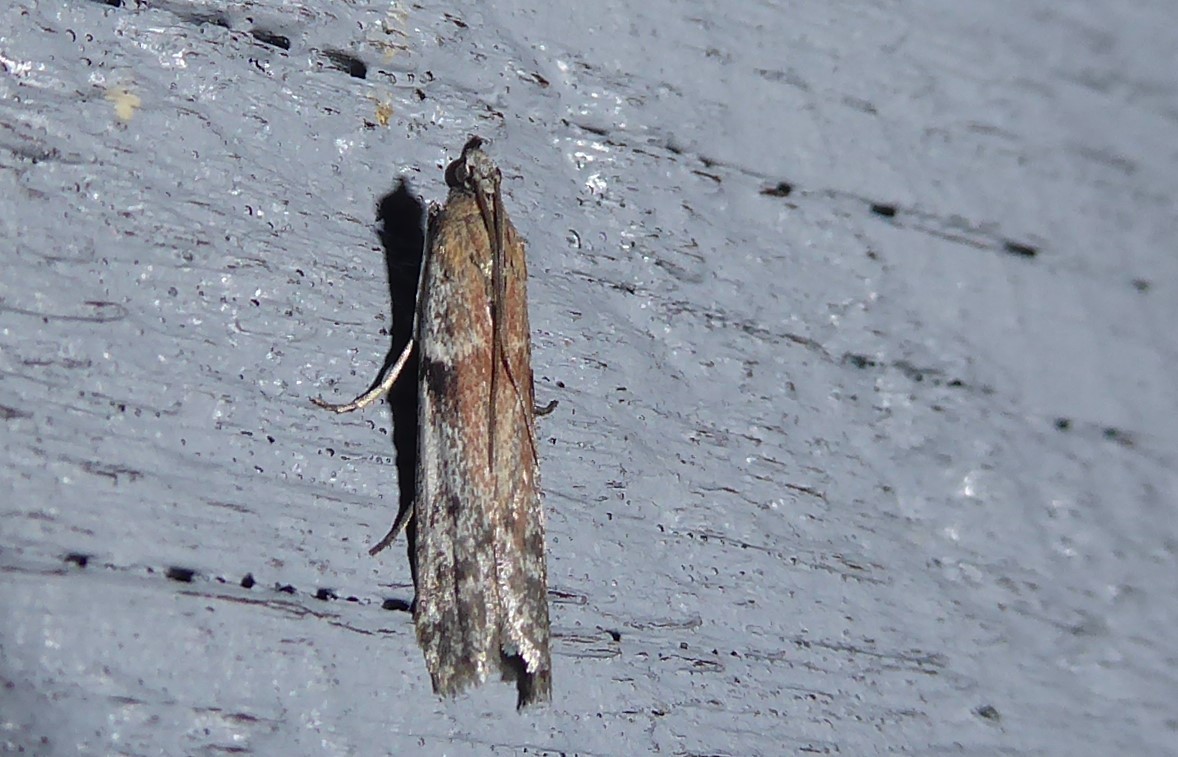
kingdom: Animalia
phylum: Arthropoda
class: Insecta
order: Lepidoptera
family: Pyralidae
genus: Patagoniodes
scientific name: Patagoniodes farinaria
